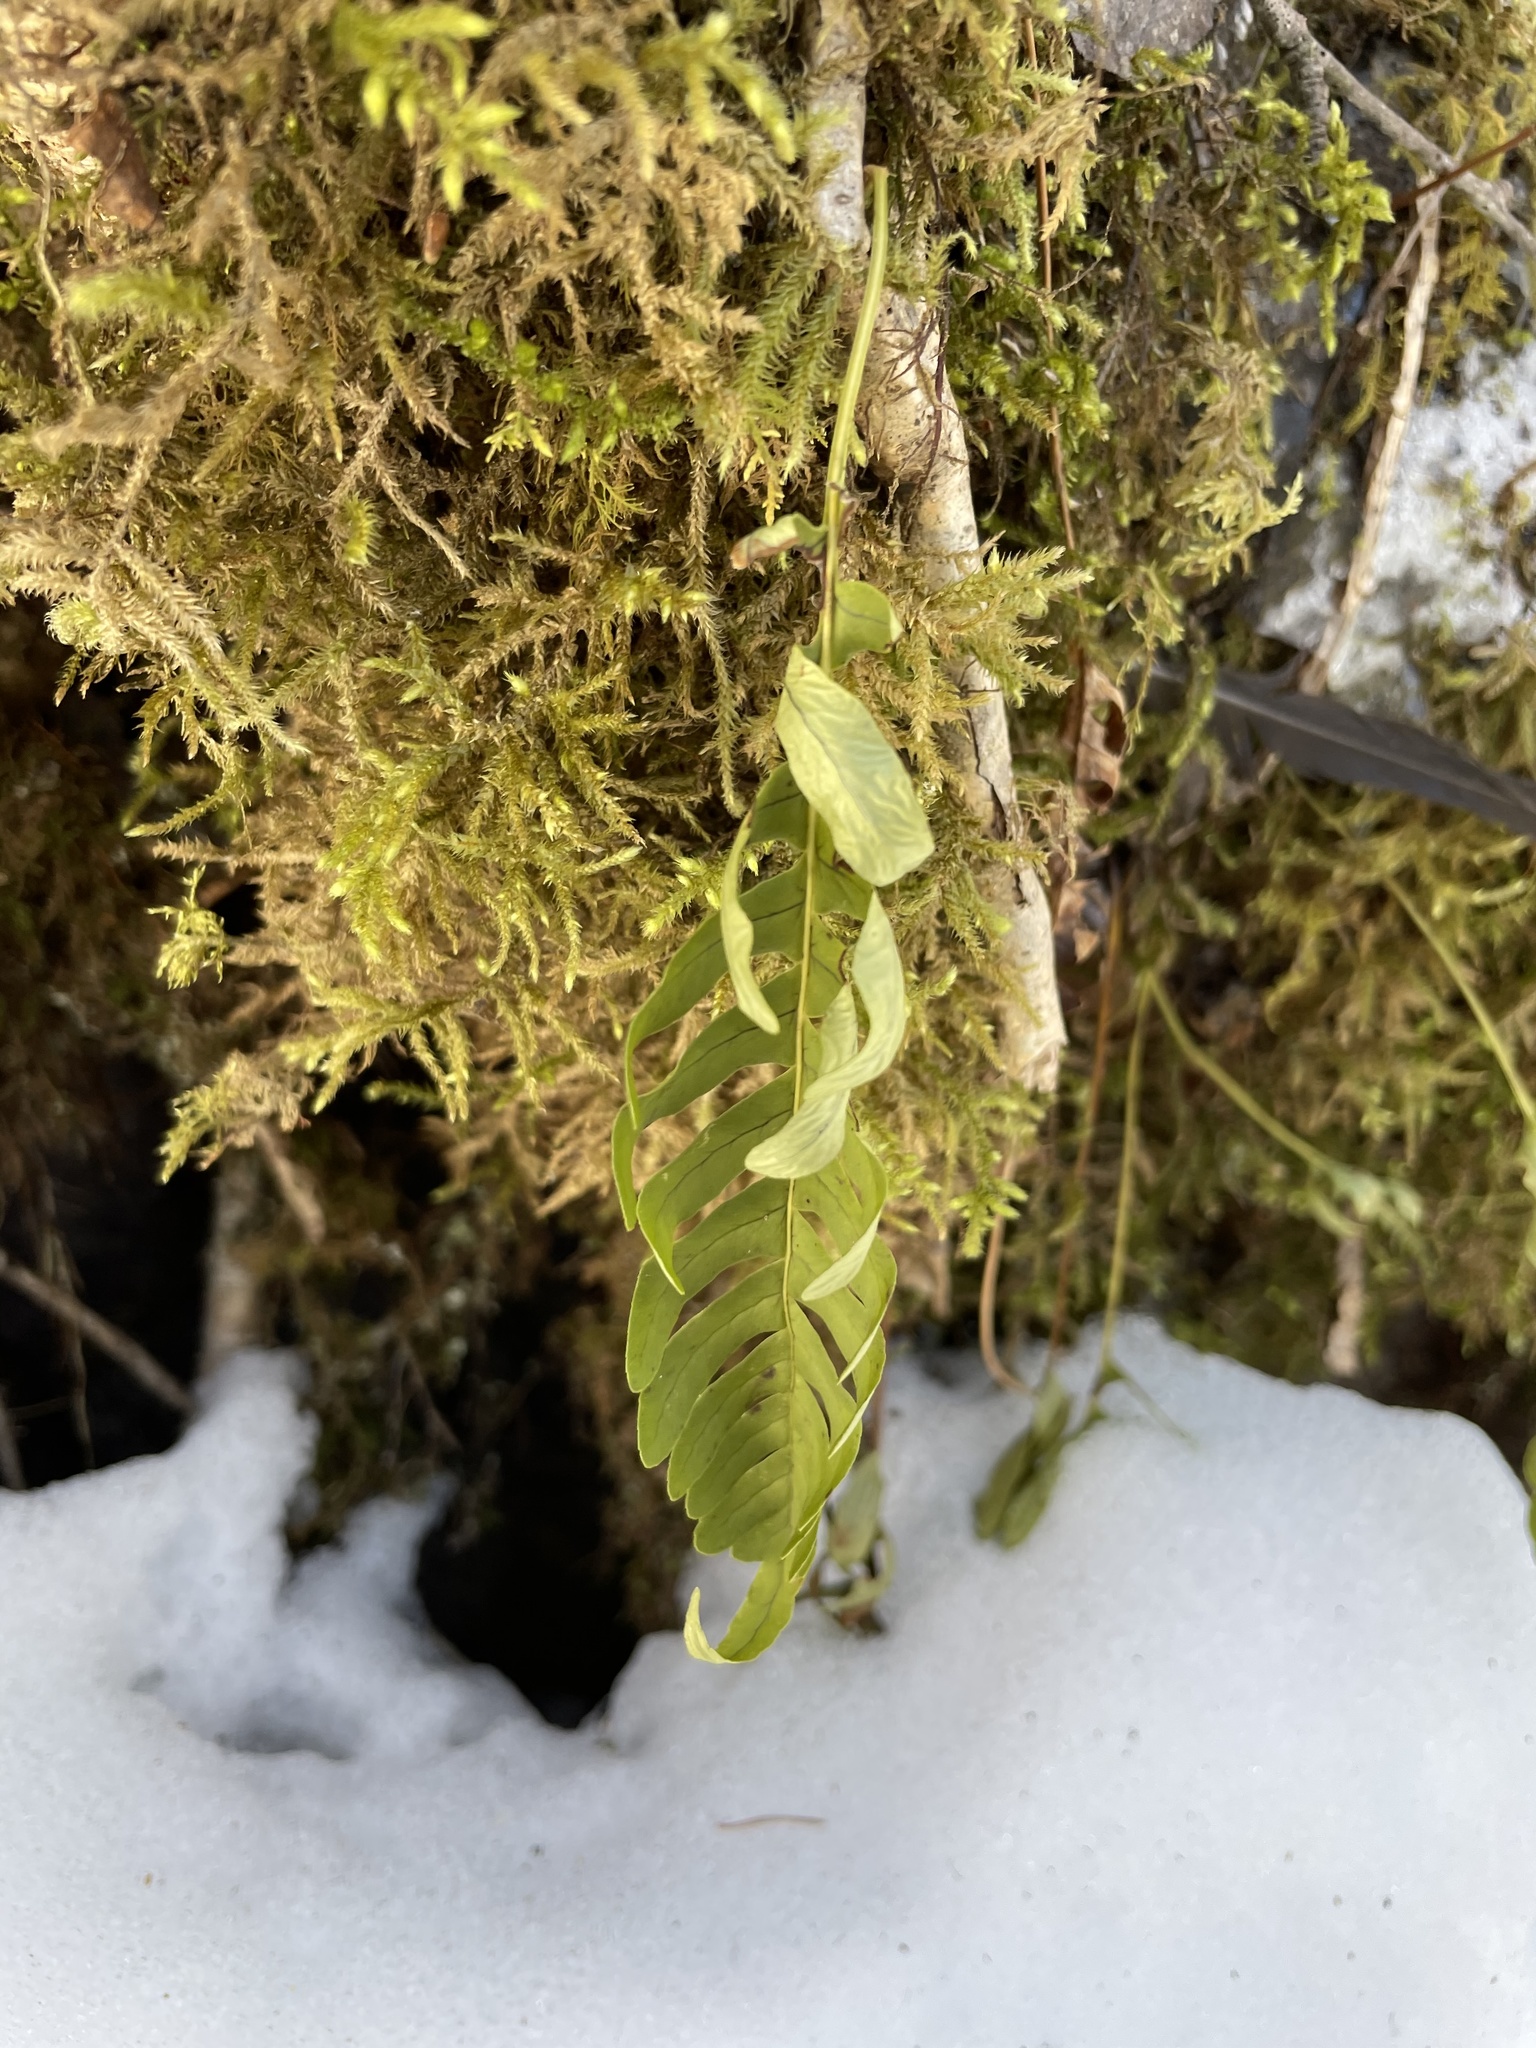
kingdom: Plantae
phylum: Tracheophyta
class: Polypodiopsida
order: Polypodiales
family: Polypodiaceae
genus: Polypodium
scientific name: Polypodium virginianum
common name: American wall fern
